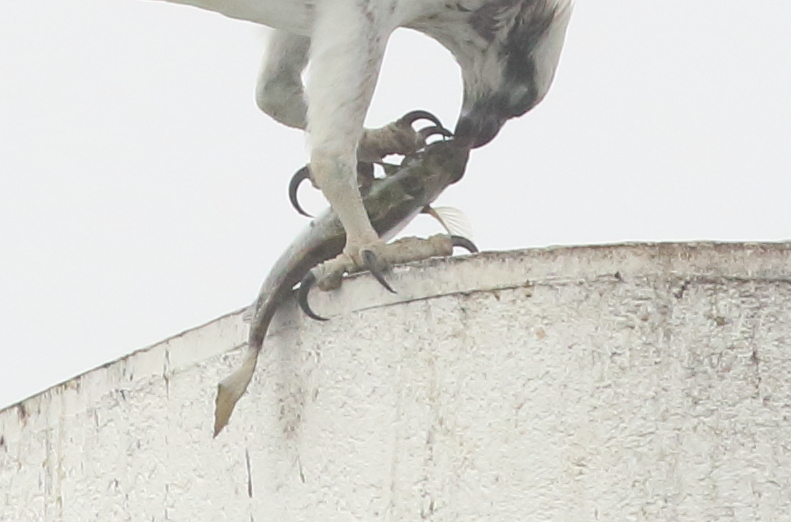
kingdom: Animalia
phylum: Chordata
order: Perciformes
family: Siganidae
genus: Siganus
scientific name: Siganus fuscescens
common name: Dusky rabbitfish
